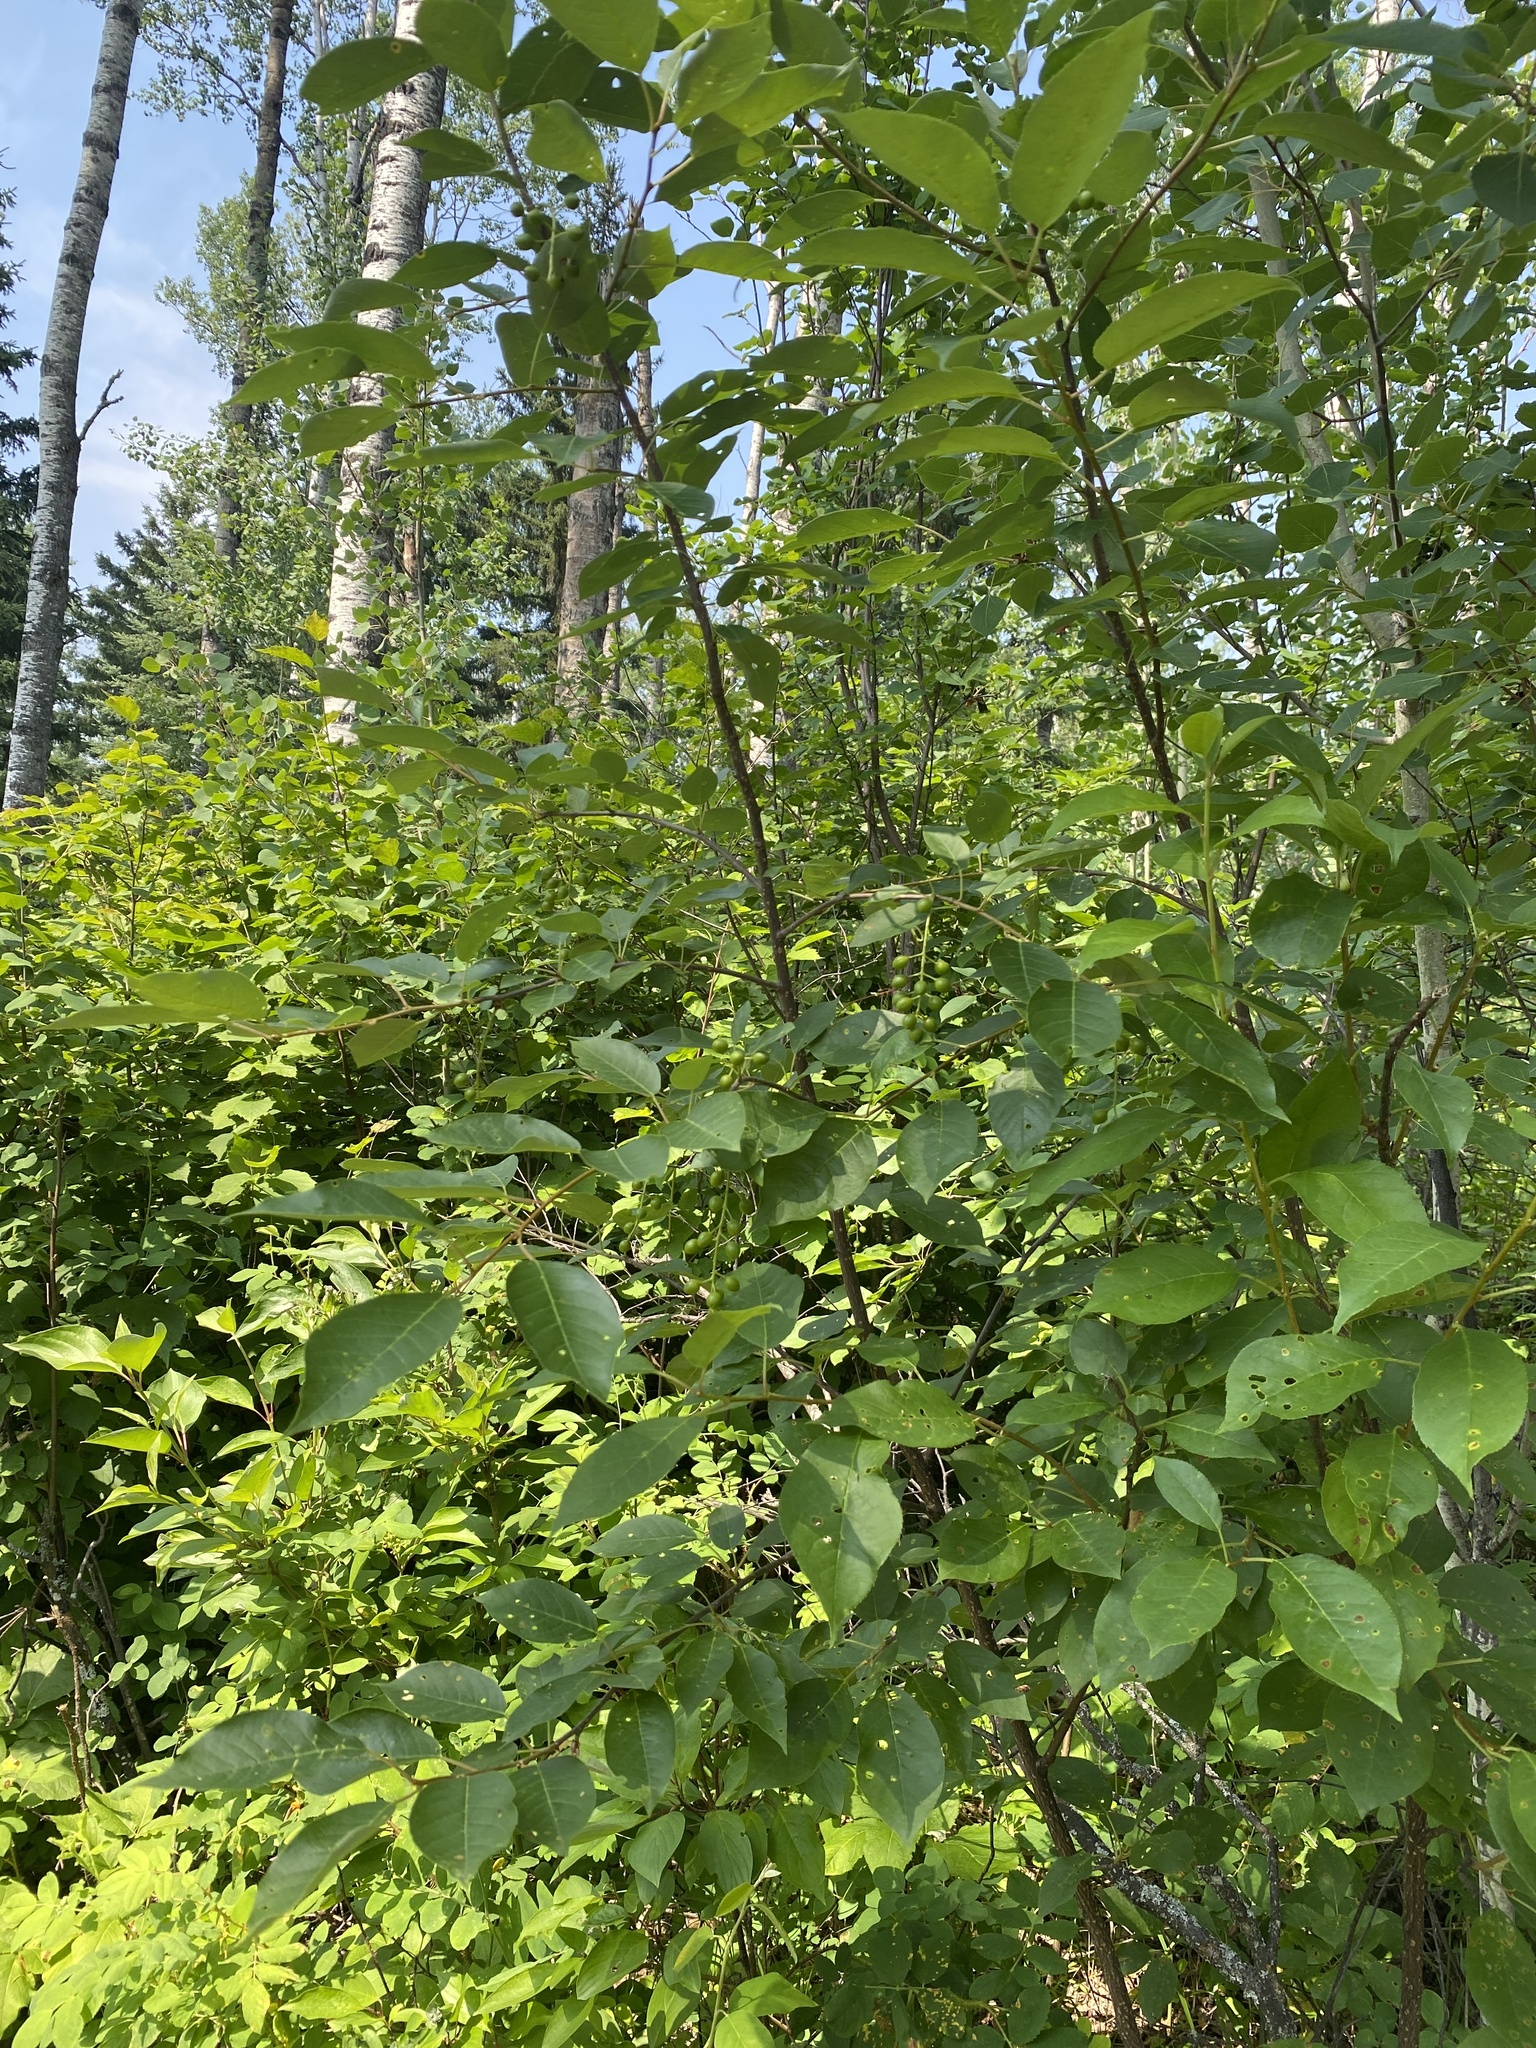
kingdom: Plantae
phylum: Tracheophyta
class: Magnoliopsida
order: Rosales
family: Rosaceae
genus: Prunus
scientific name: Prunus virginiana
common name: Chokecherry
